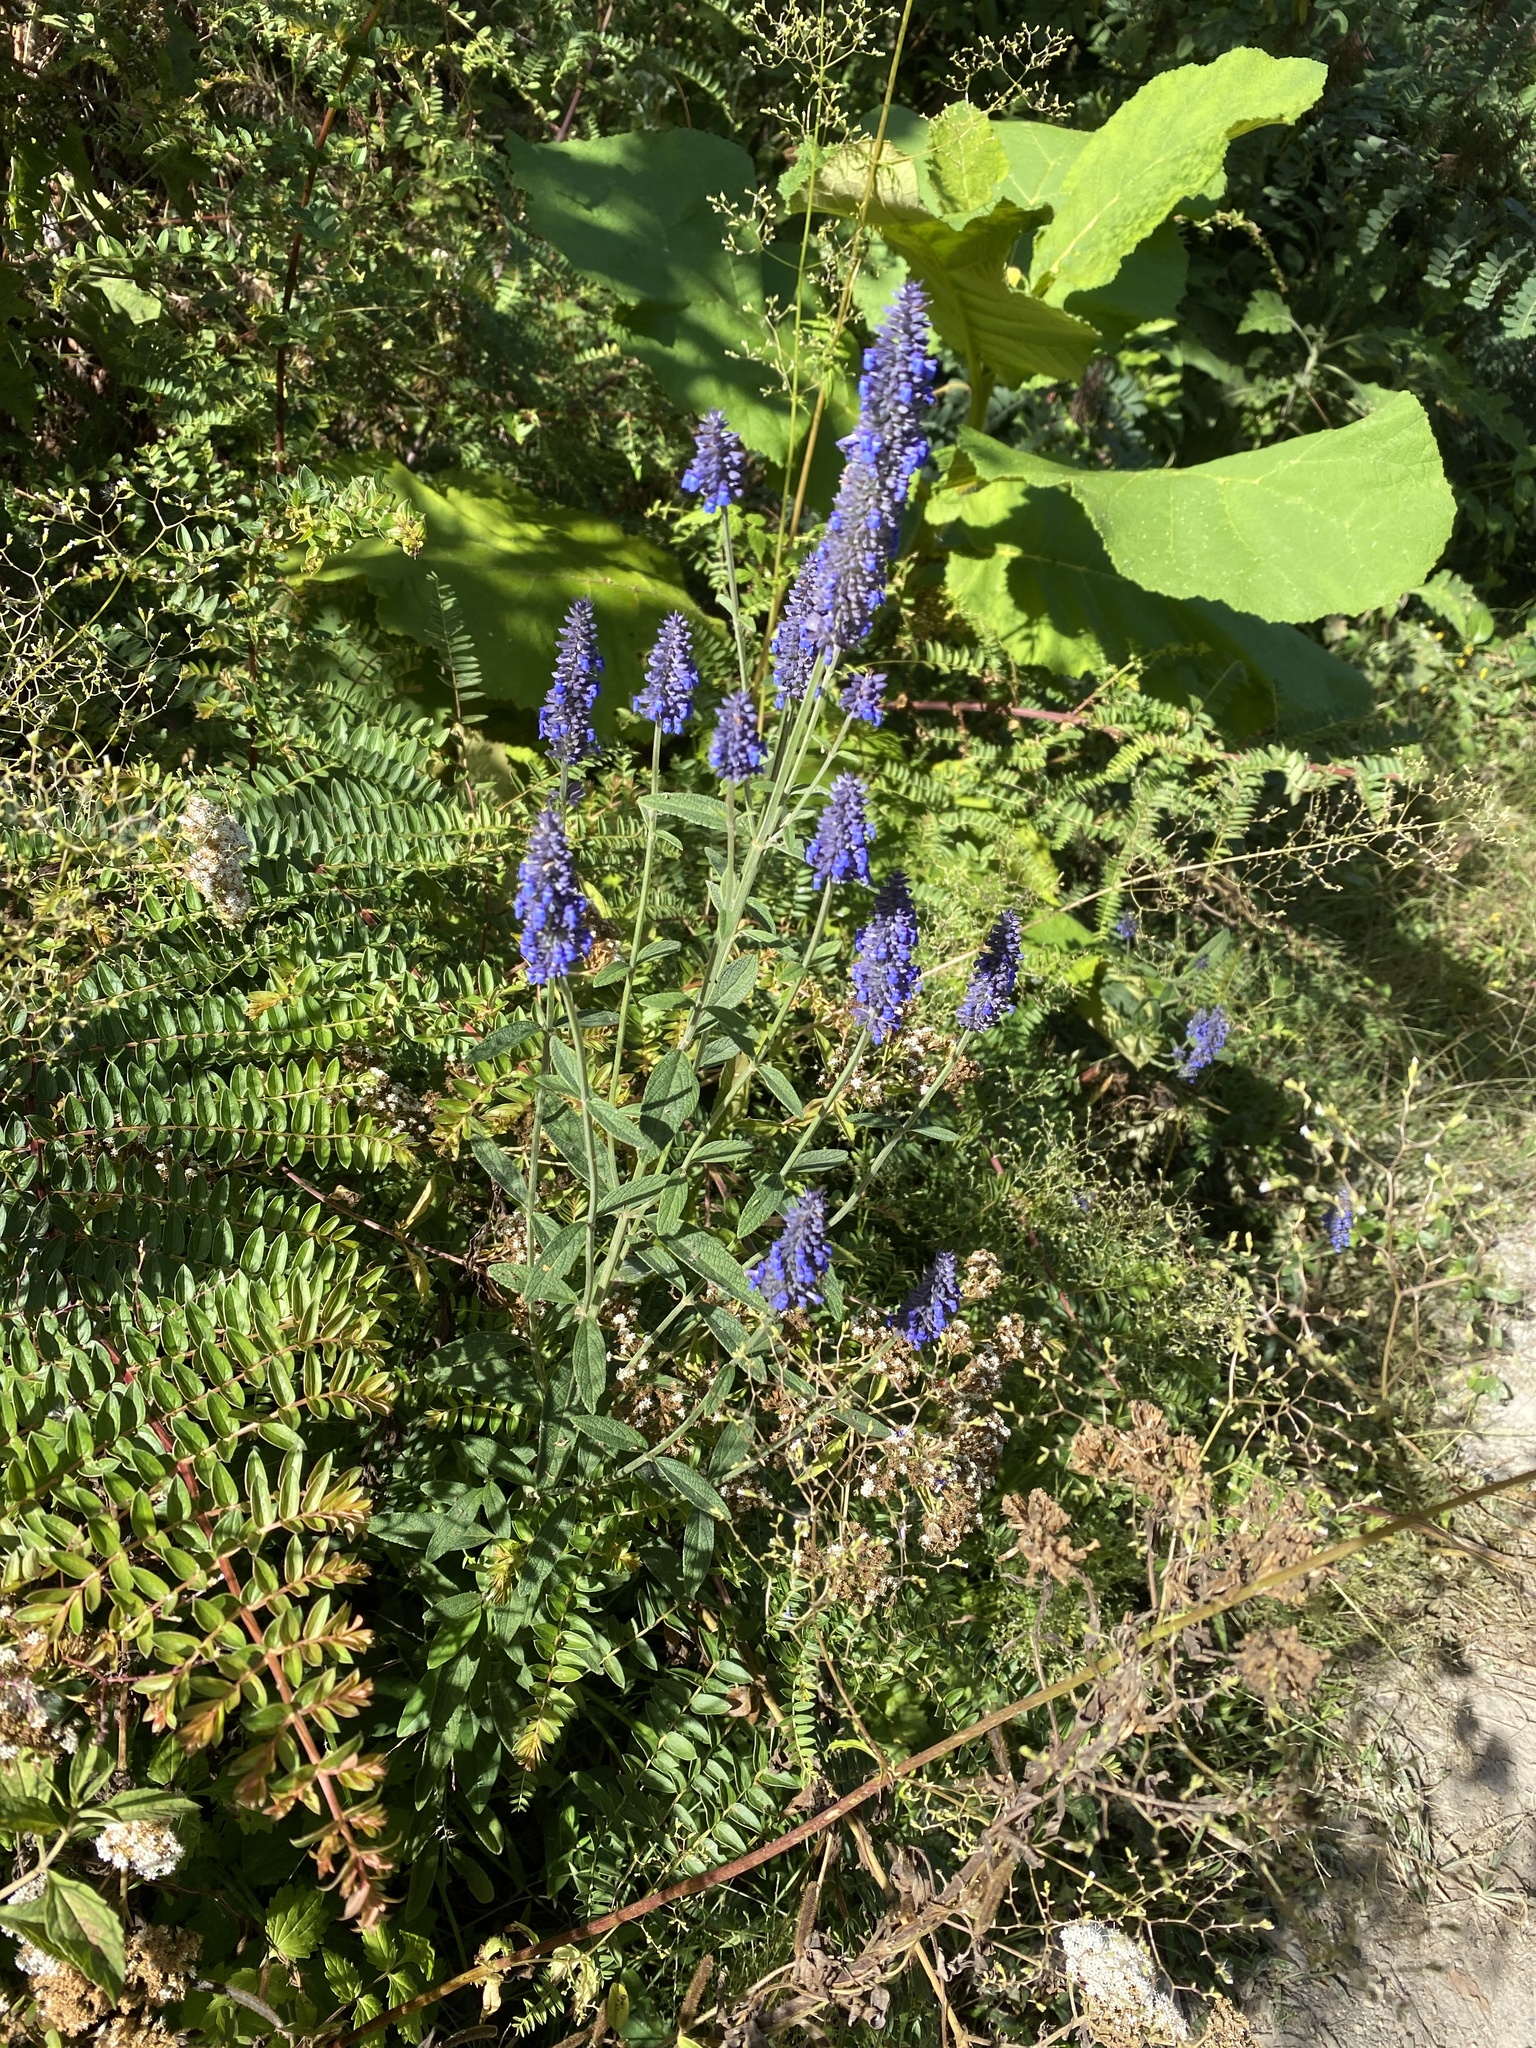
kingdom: Plantae
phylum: Tracheophyta
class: Magnoliopsida
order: Lamiales
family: Lamiaceae
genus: Salvia
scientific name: Salvia lavanduloides
